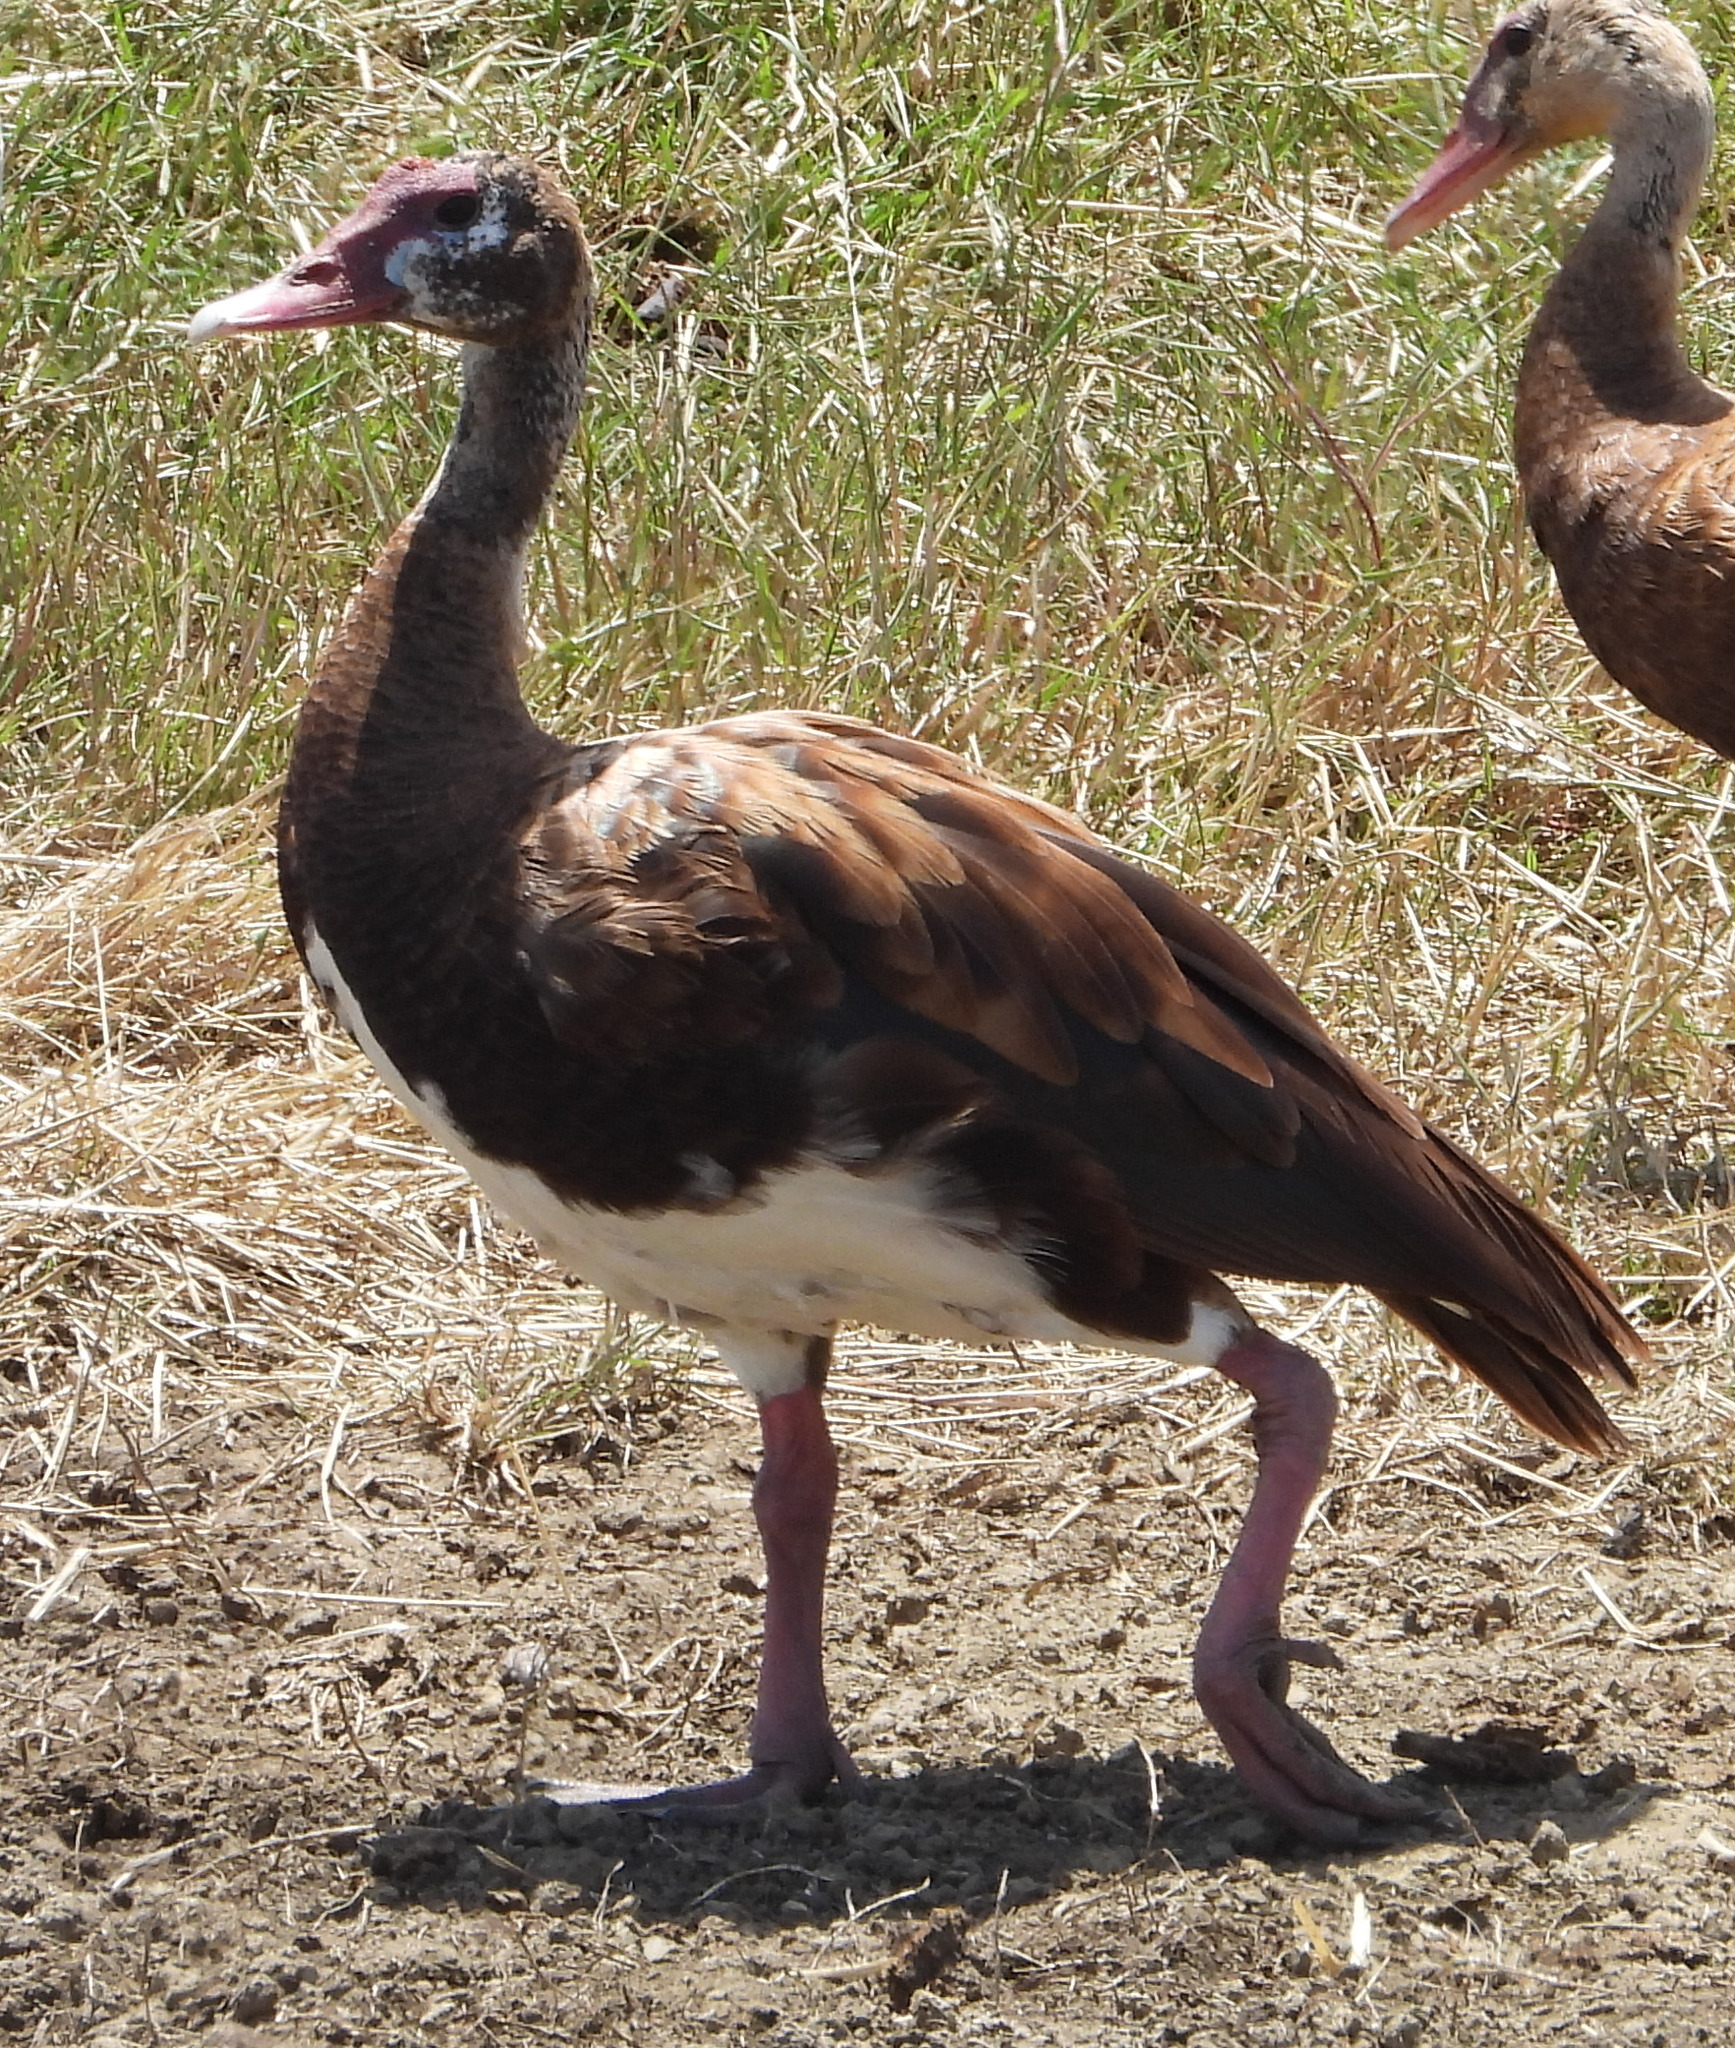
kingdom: Animalia
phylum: Chordata
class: Aves
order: Anseriformes
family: Anatidae
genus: Plectropterus
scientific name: Plectropterus gambensis
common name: Spur-winged goose
